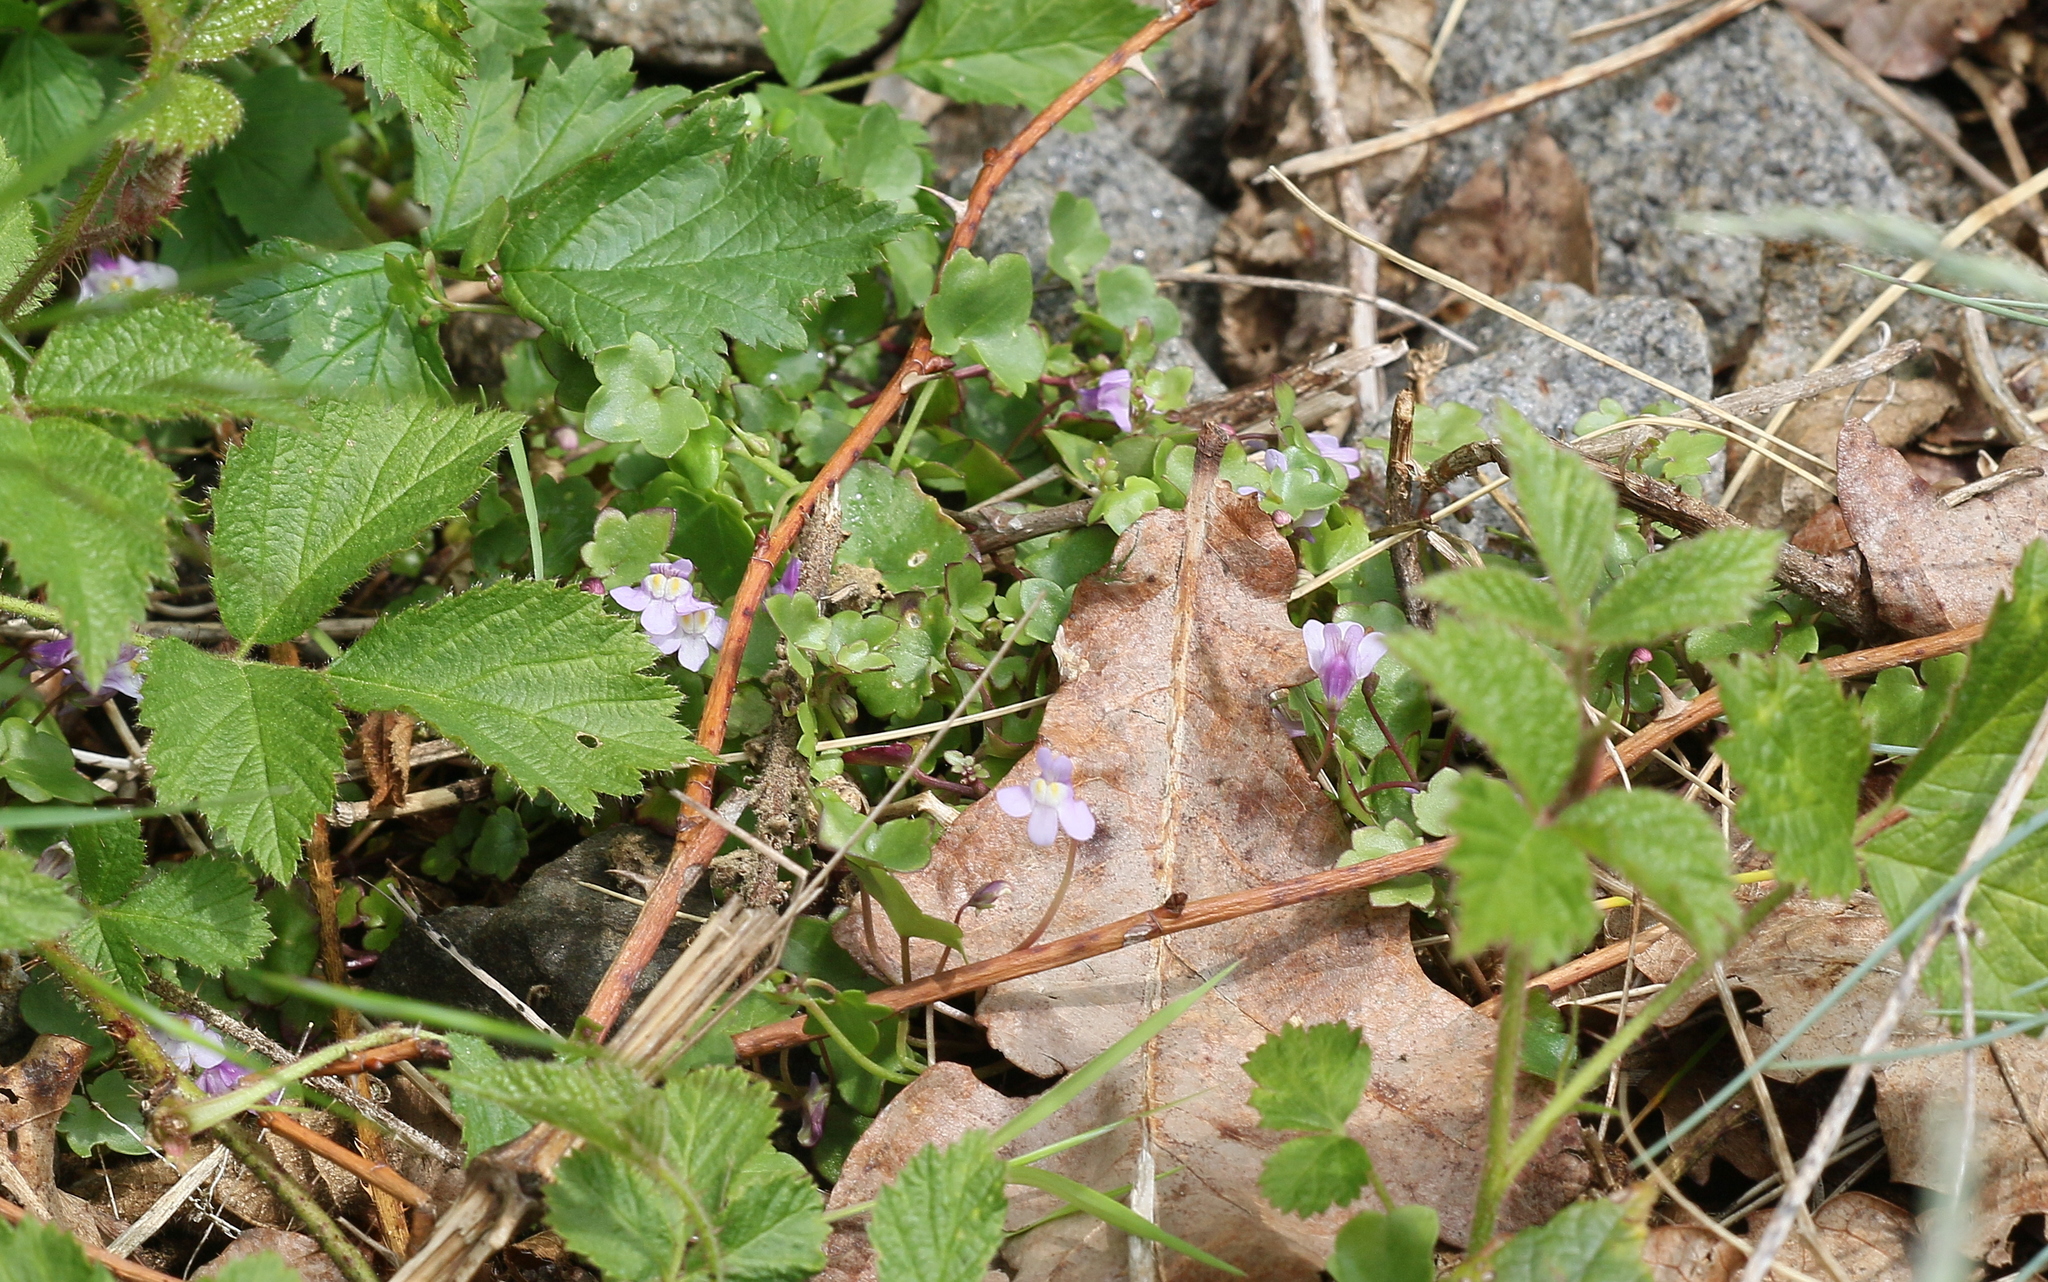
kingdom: Plantae
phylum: Tracheophyta
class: Magnoliopsida
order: Lamiales
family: Plantaginaceae
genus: Cymbalaria
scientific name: Cymbalaria muralis
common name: Ivy-leaved toadflax
